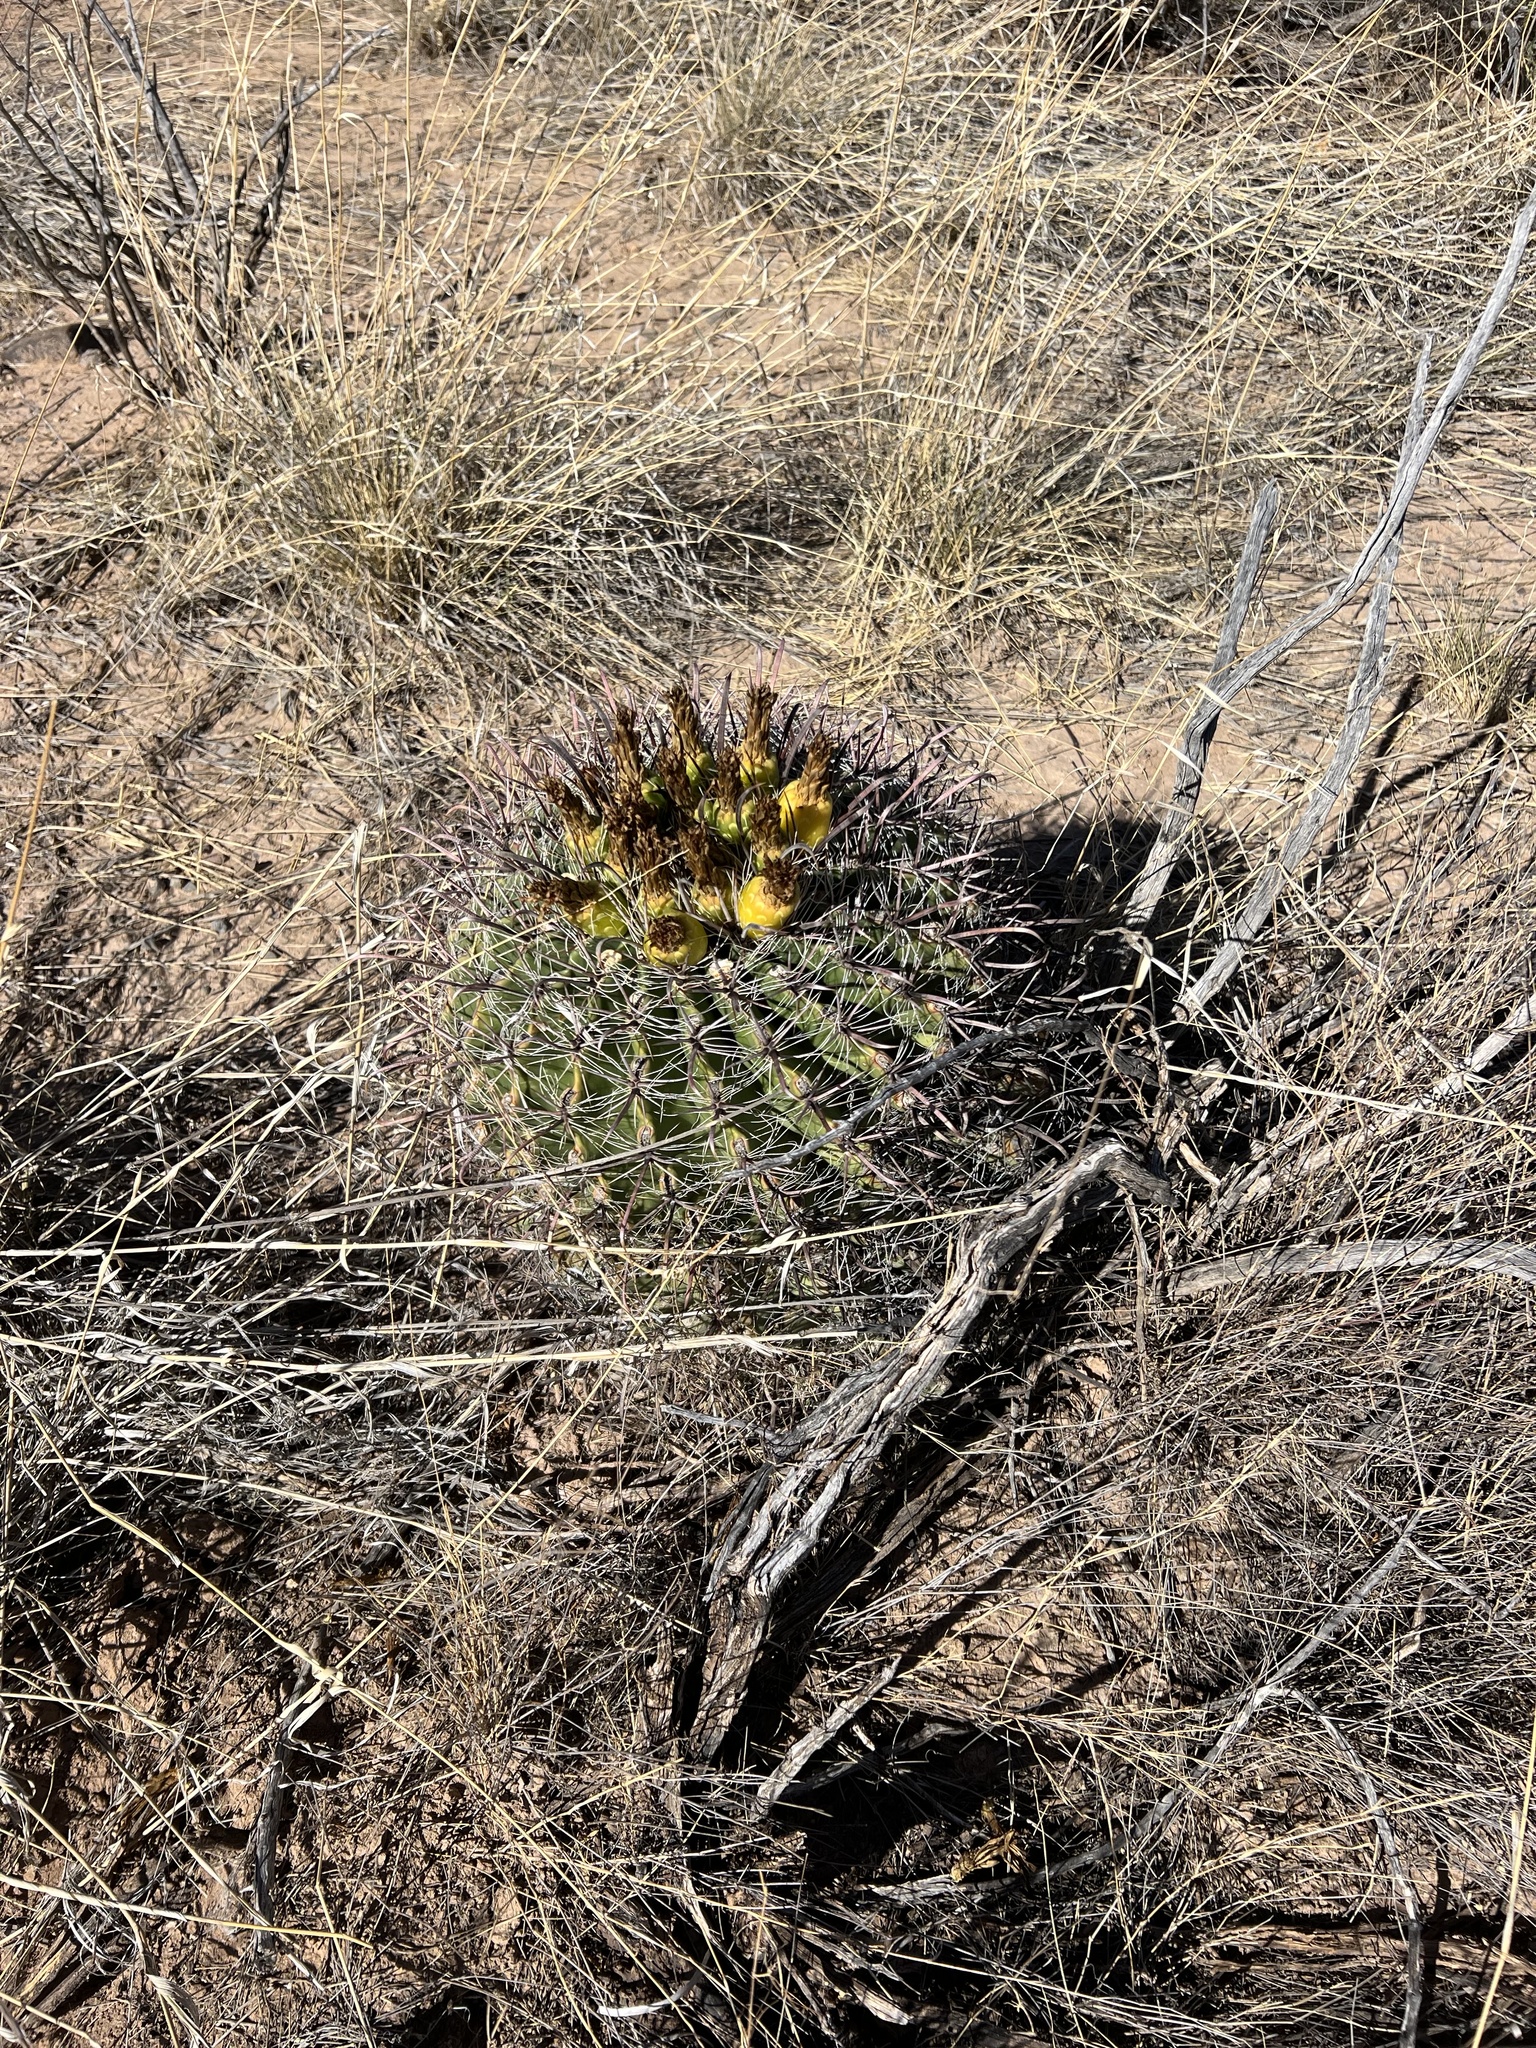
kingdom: Plantae
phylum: Tracheophyta
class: Magnoliopsida
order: Caryophyllales
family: Cactaceae
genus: Ferocactus
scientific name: Ferocactus wislizeni
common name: Candy barrel cactus
